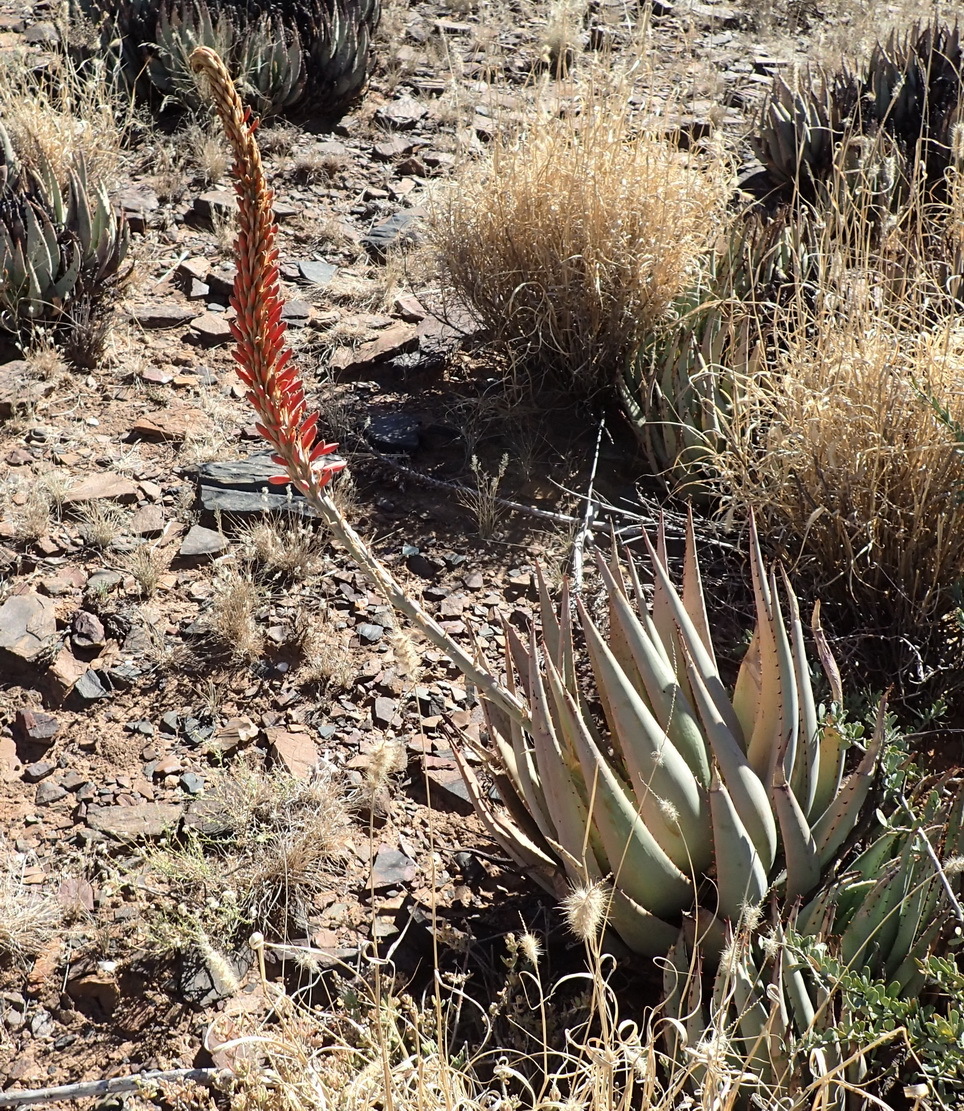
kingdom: Plantae
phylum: Tracheophyta
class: Liliopsida
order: Asparagales
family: Asphodelaceae
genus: Aloe
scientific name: Aloe claviflora
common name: Cannon aloe
